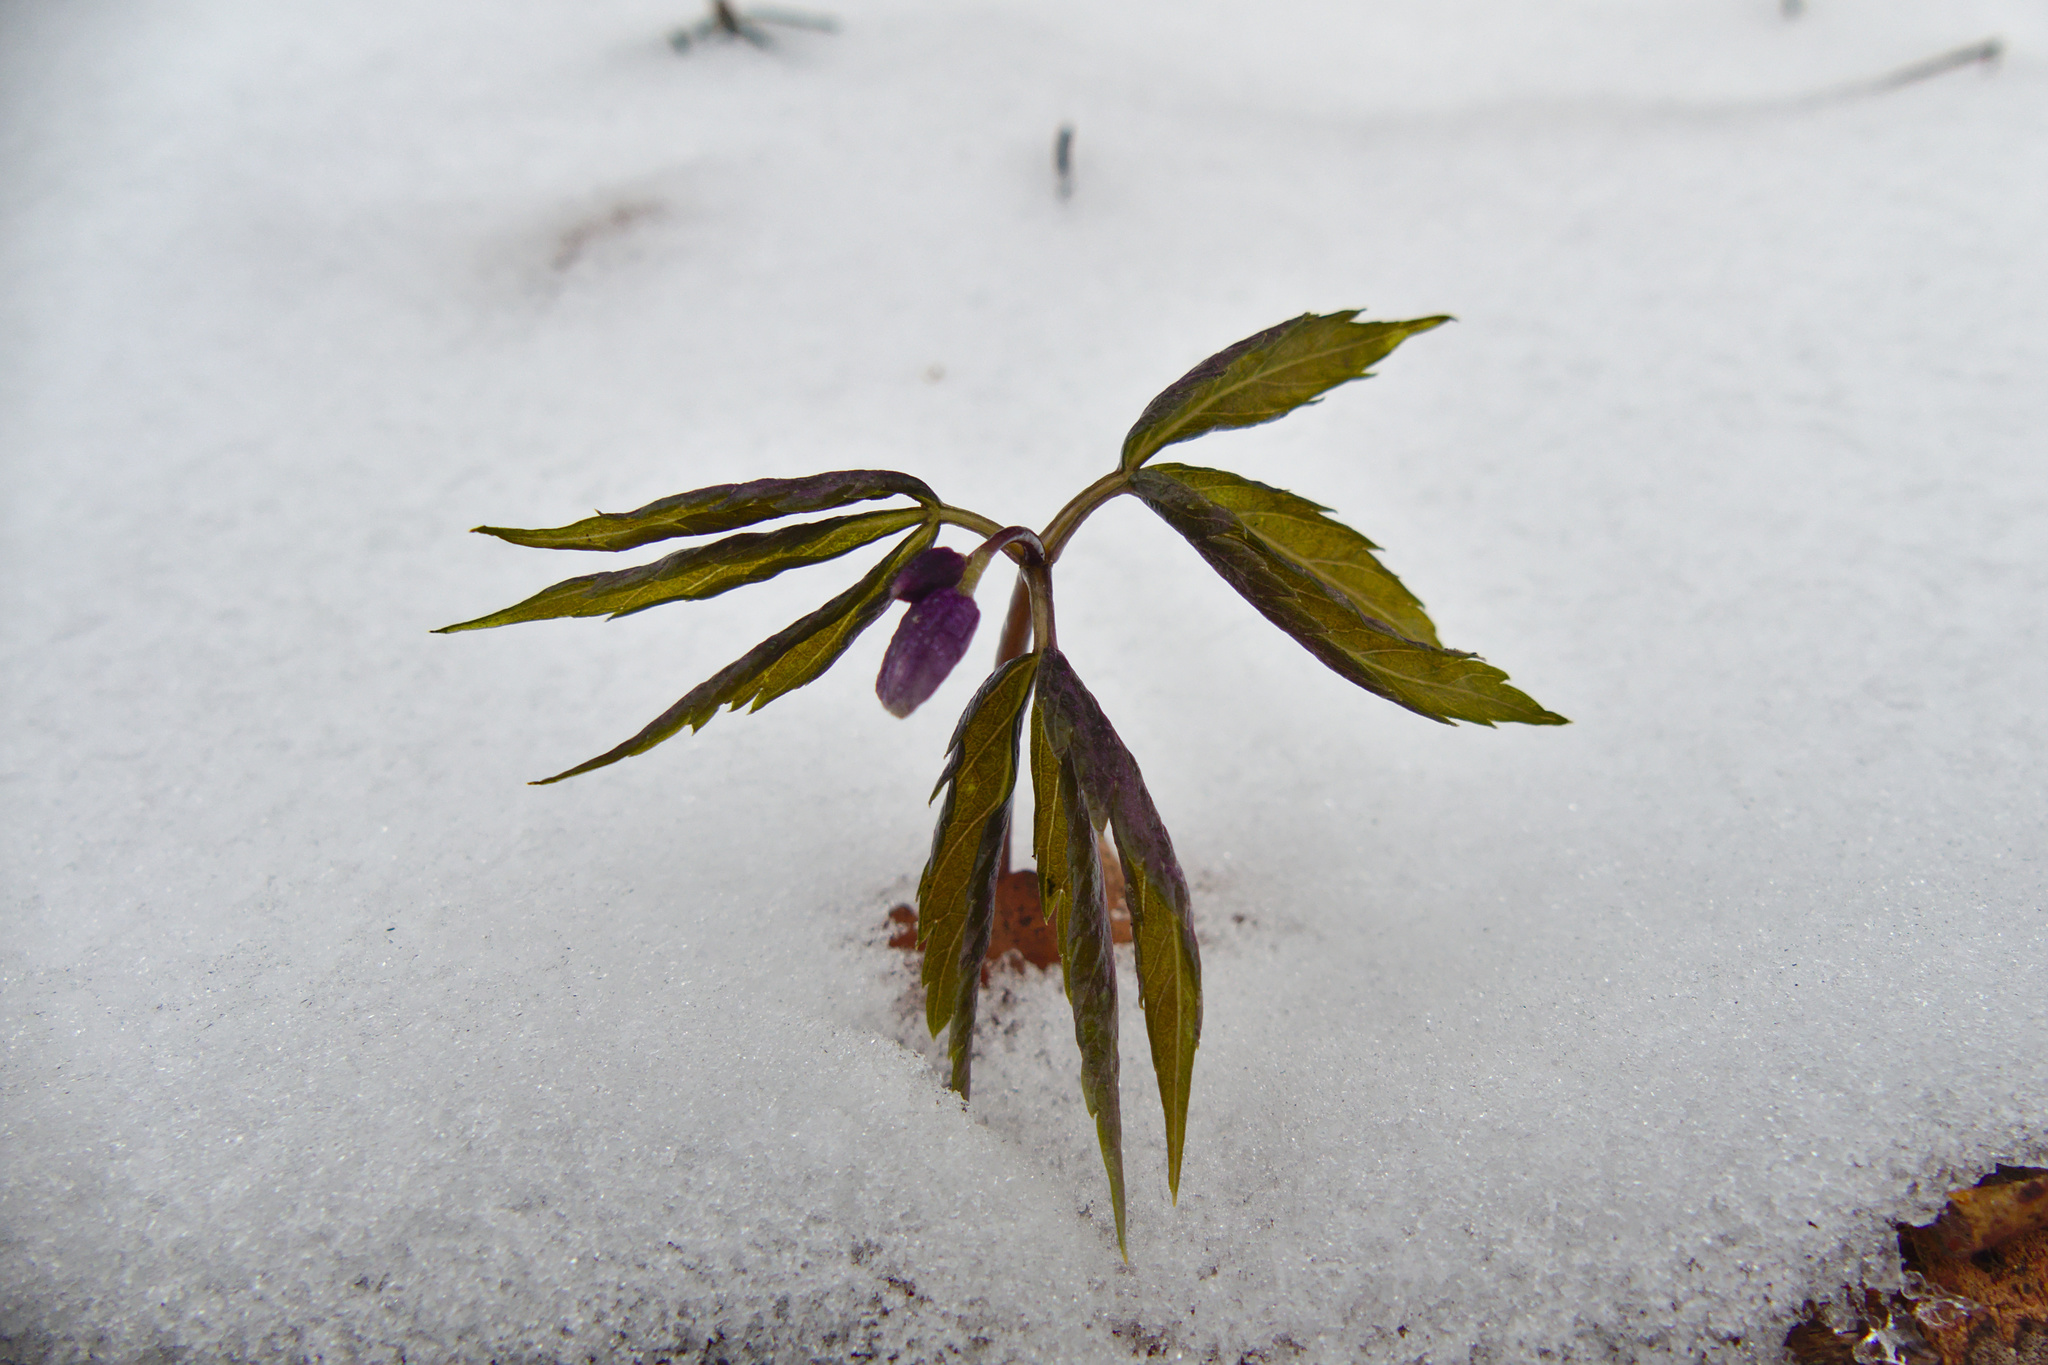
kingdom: Plantae
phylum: Tracheophyta
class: Magnoliopsida
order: Brassicales
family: Brassicaceae
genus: Cardamine
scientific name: Cardamine glanduligera
